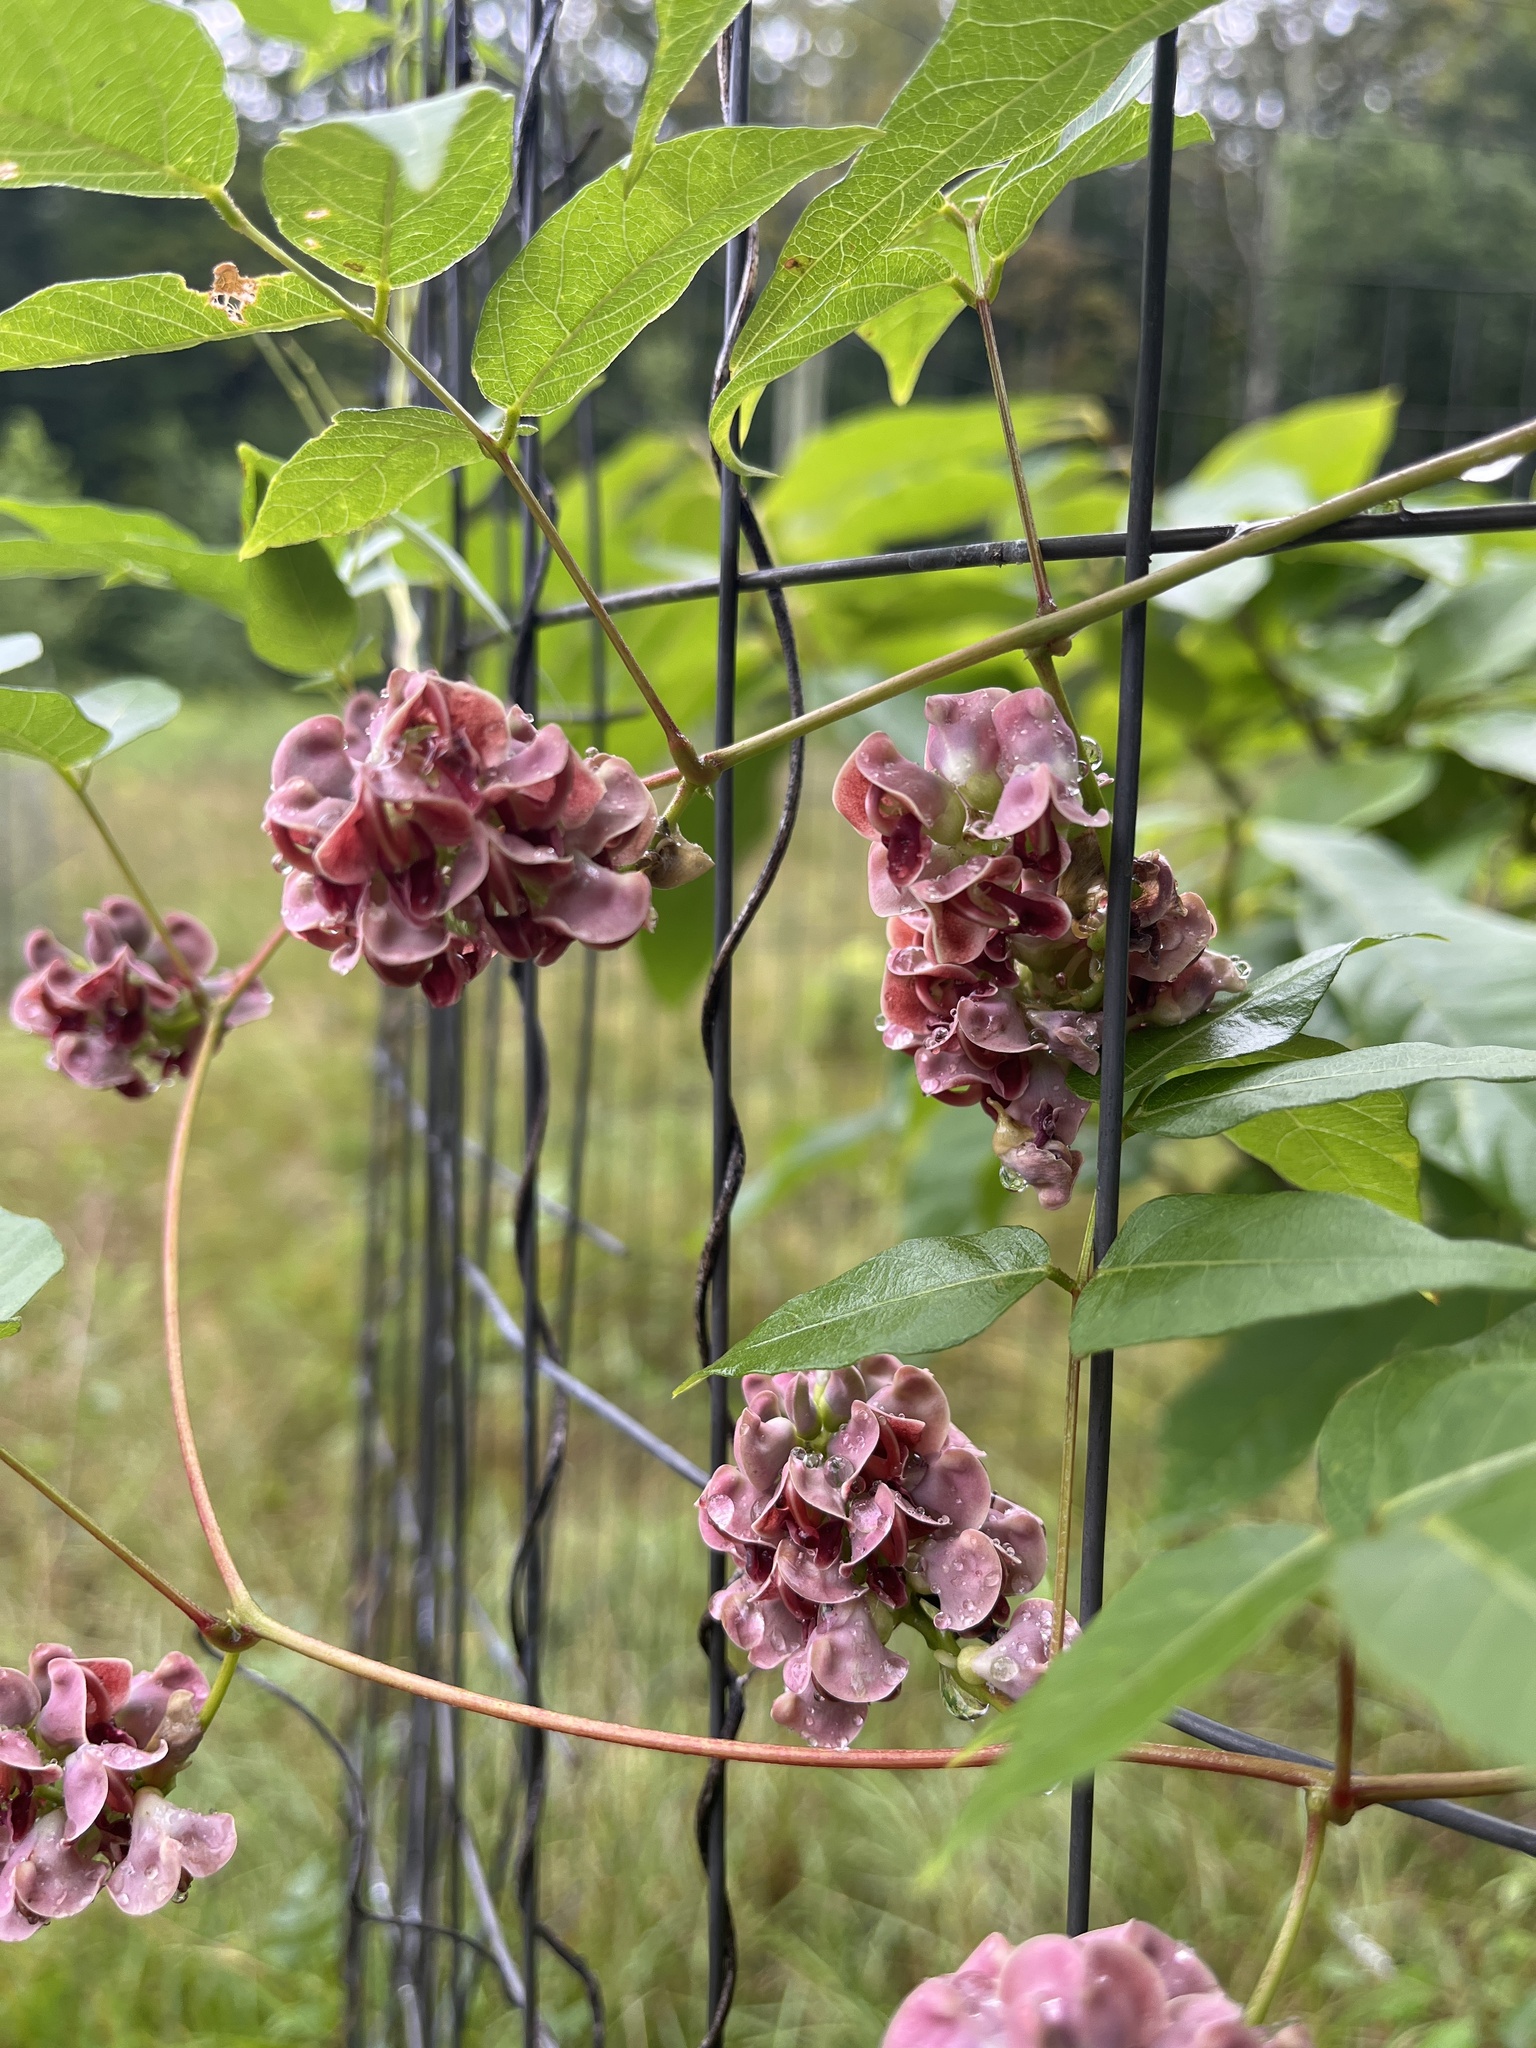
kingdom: Plantae
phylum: Tracheophyta
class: Magnoliopsida
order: Fabales
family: Fabaceae
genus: Apios
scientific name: Apios americana
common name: American potato-bean
